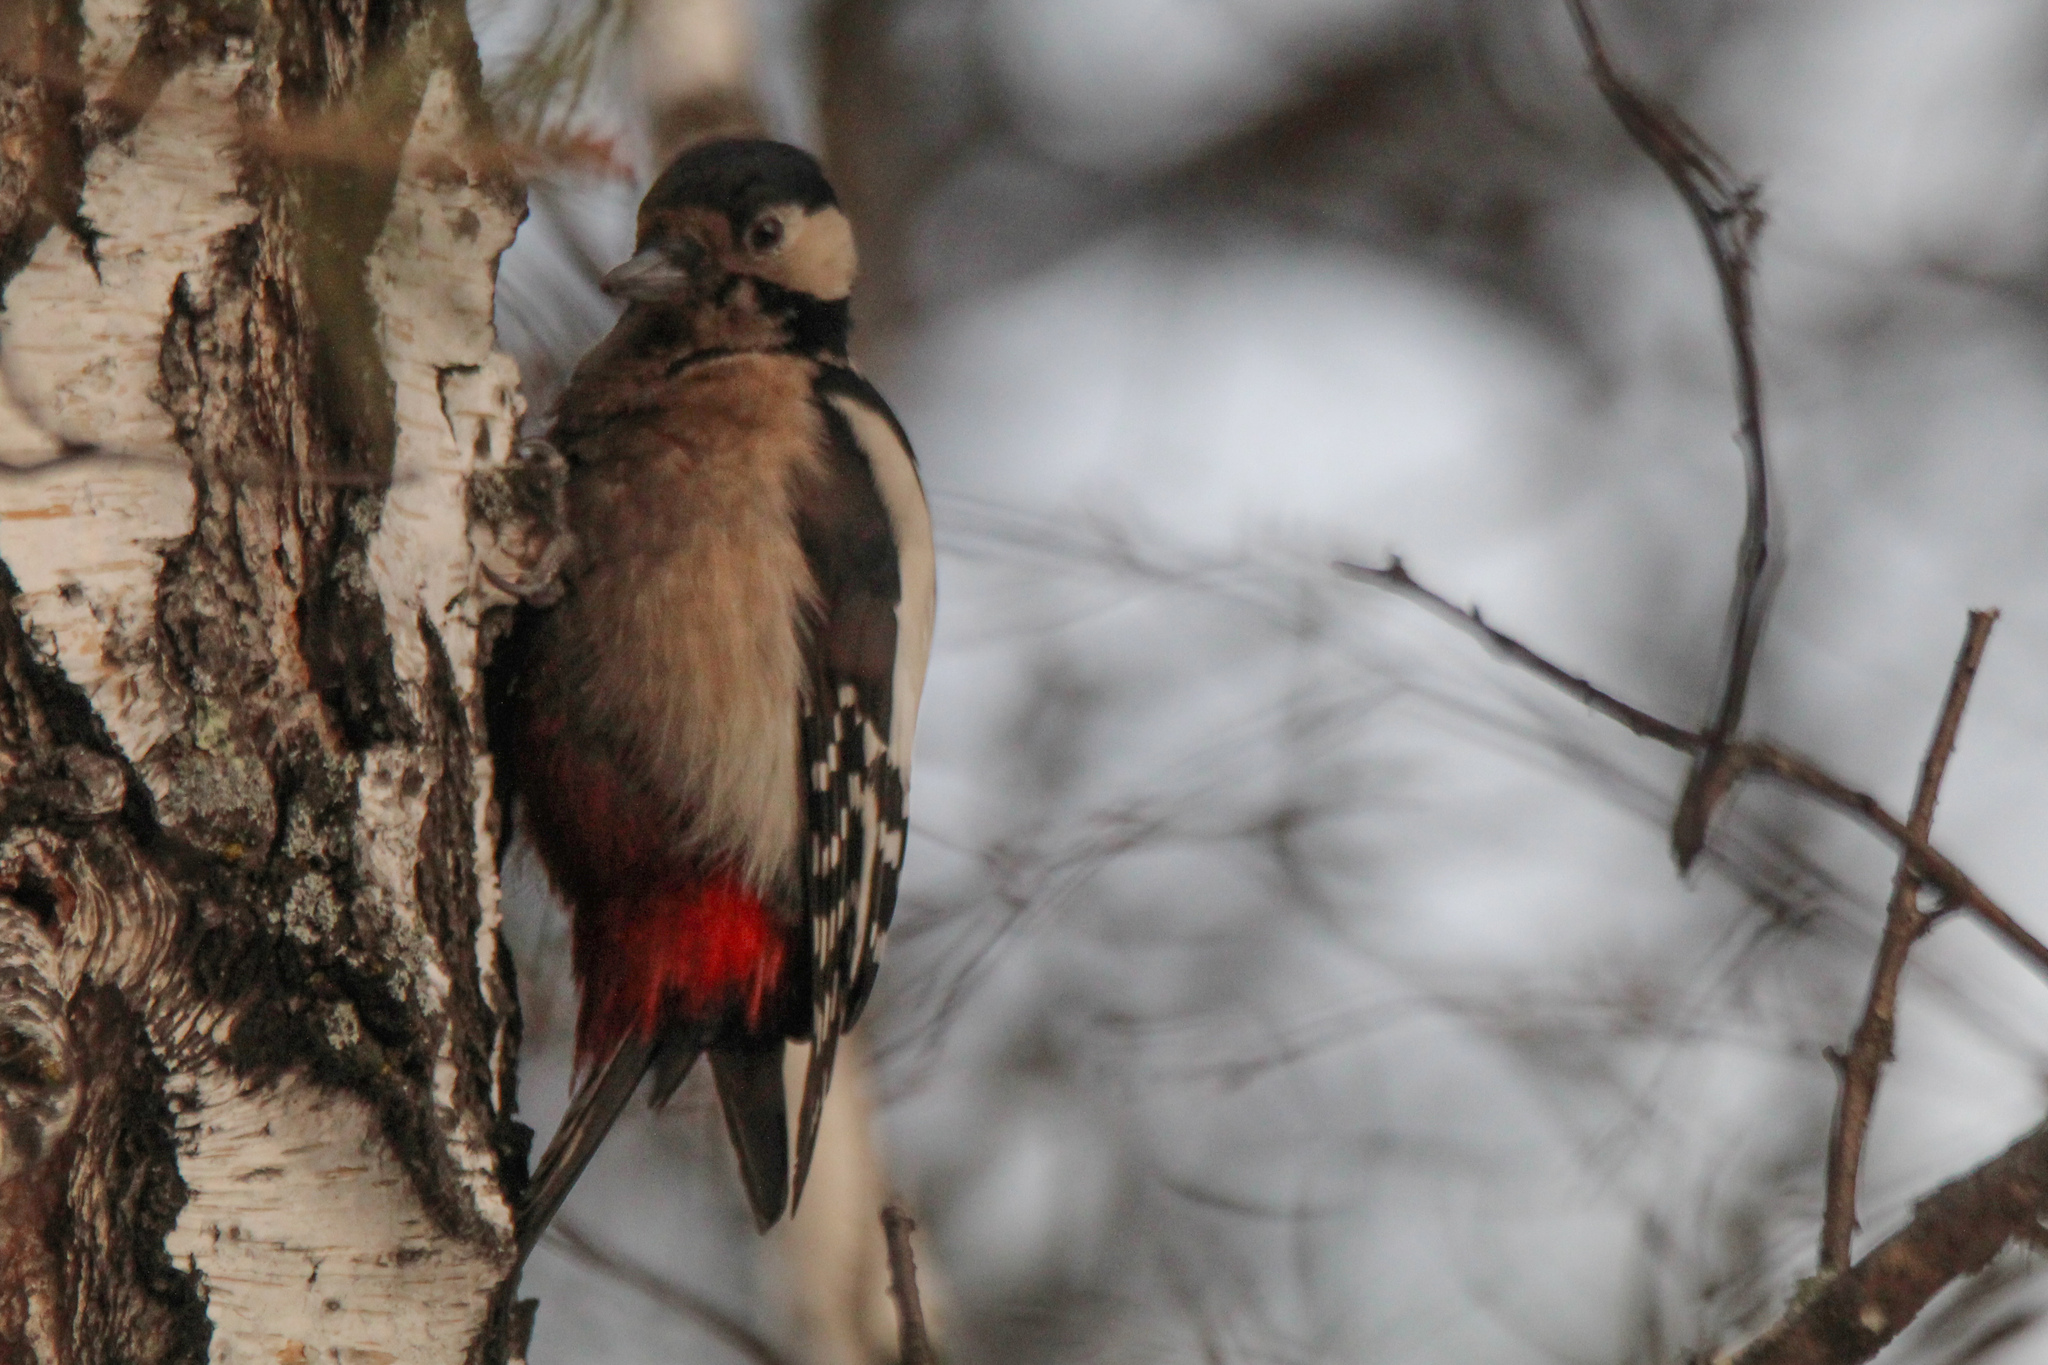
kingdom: Animalia
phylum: Chordata
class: Aves
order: Piciformes
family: Picidae
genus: Dendrocopos
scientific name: Dendrocopos major
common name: Great spotted woodpecker
